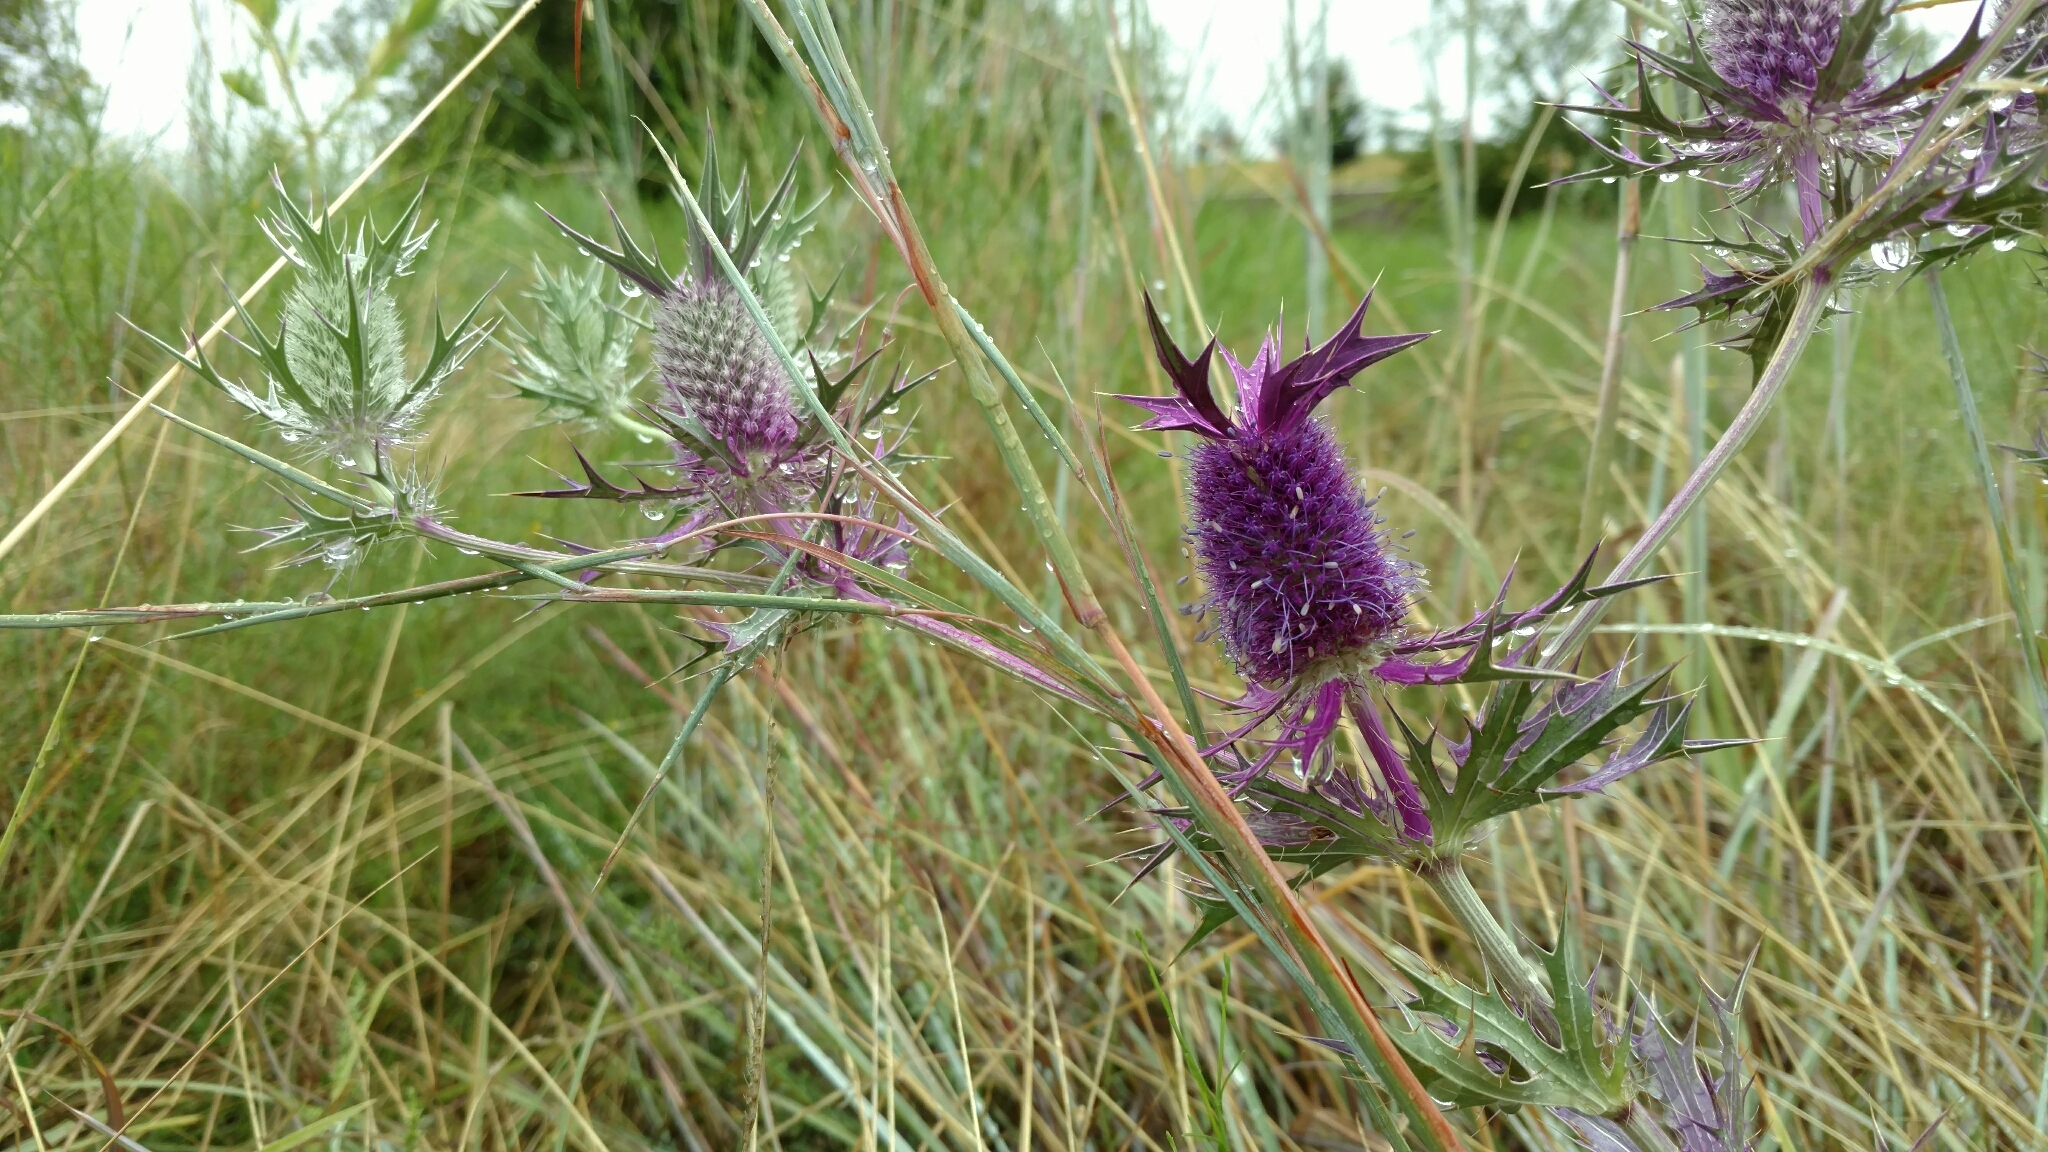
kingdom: Plantae
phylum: Tracheophyta
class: Magnoliopsida
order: Apiales
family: Apiaceae
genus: Eryngium
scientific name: Eryngium leavenworthii
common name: Leavenworth's eryngo
